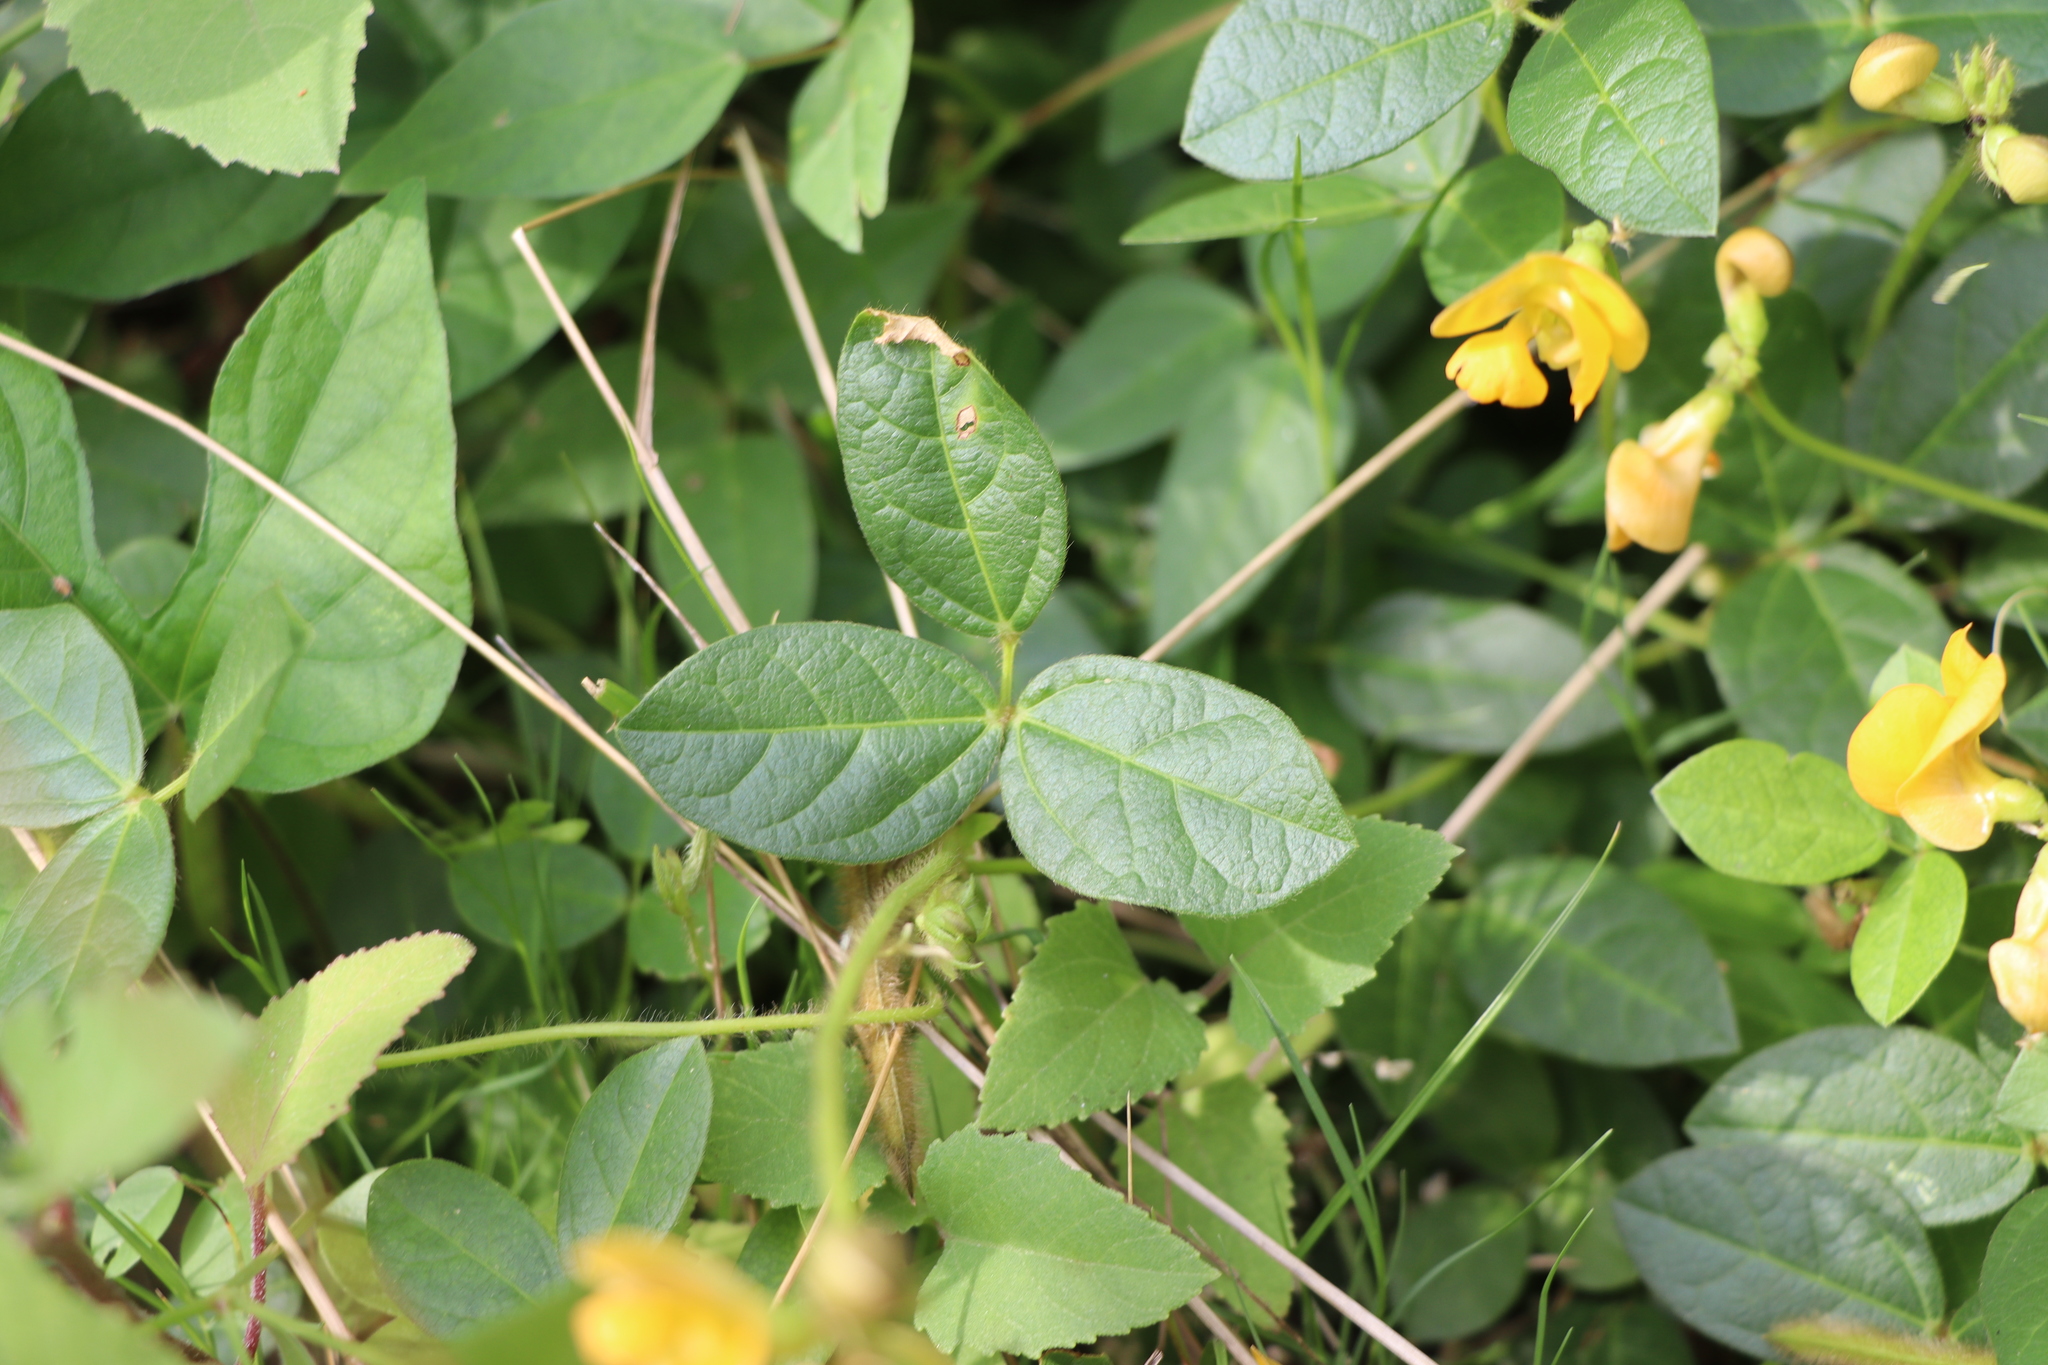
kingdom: Plantae
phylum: Tracheophyta
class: Magnoliopsida
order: Fabales
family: Fabaceae
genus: Vigna
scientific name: Vigna longifolia
